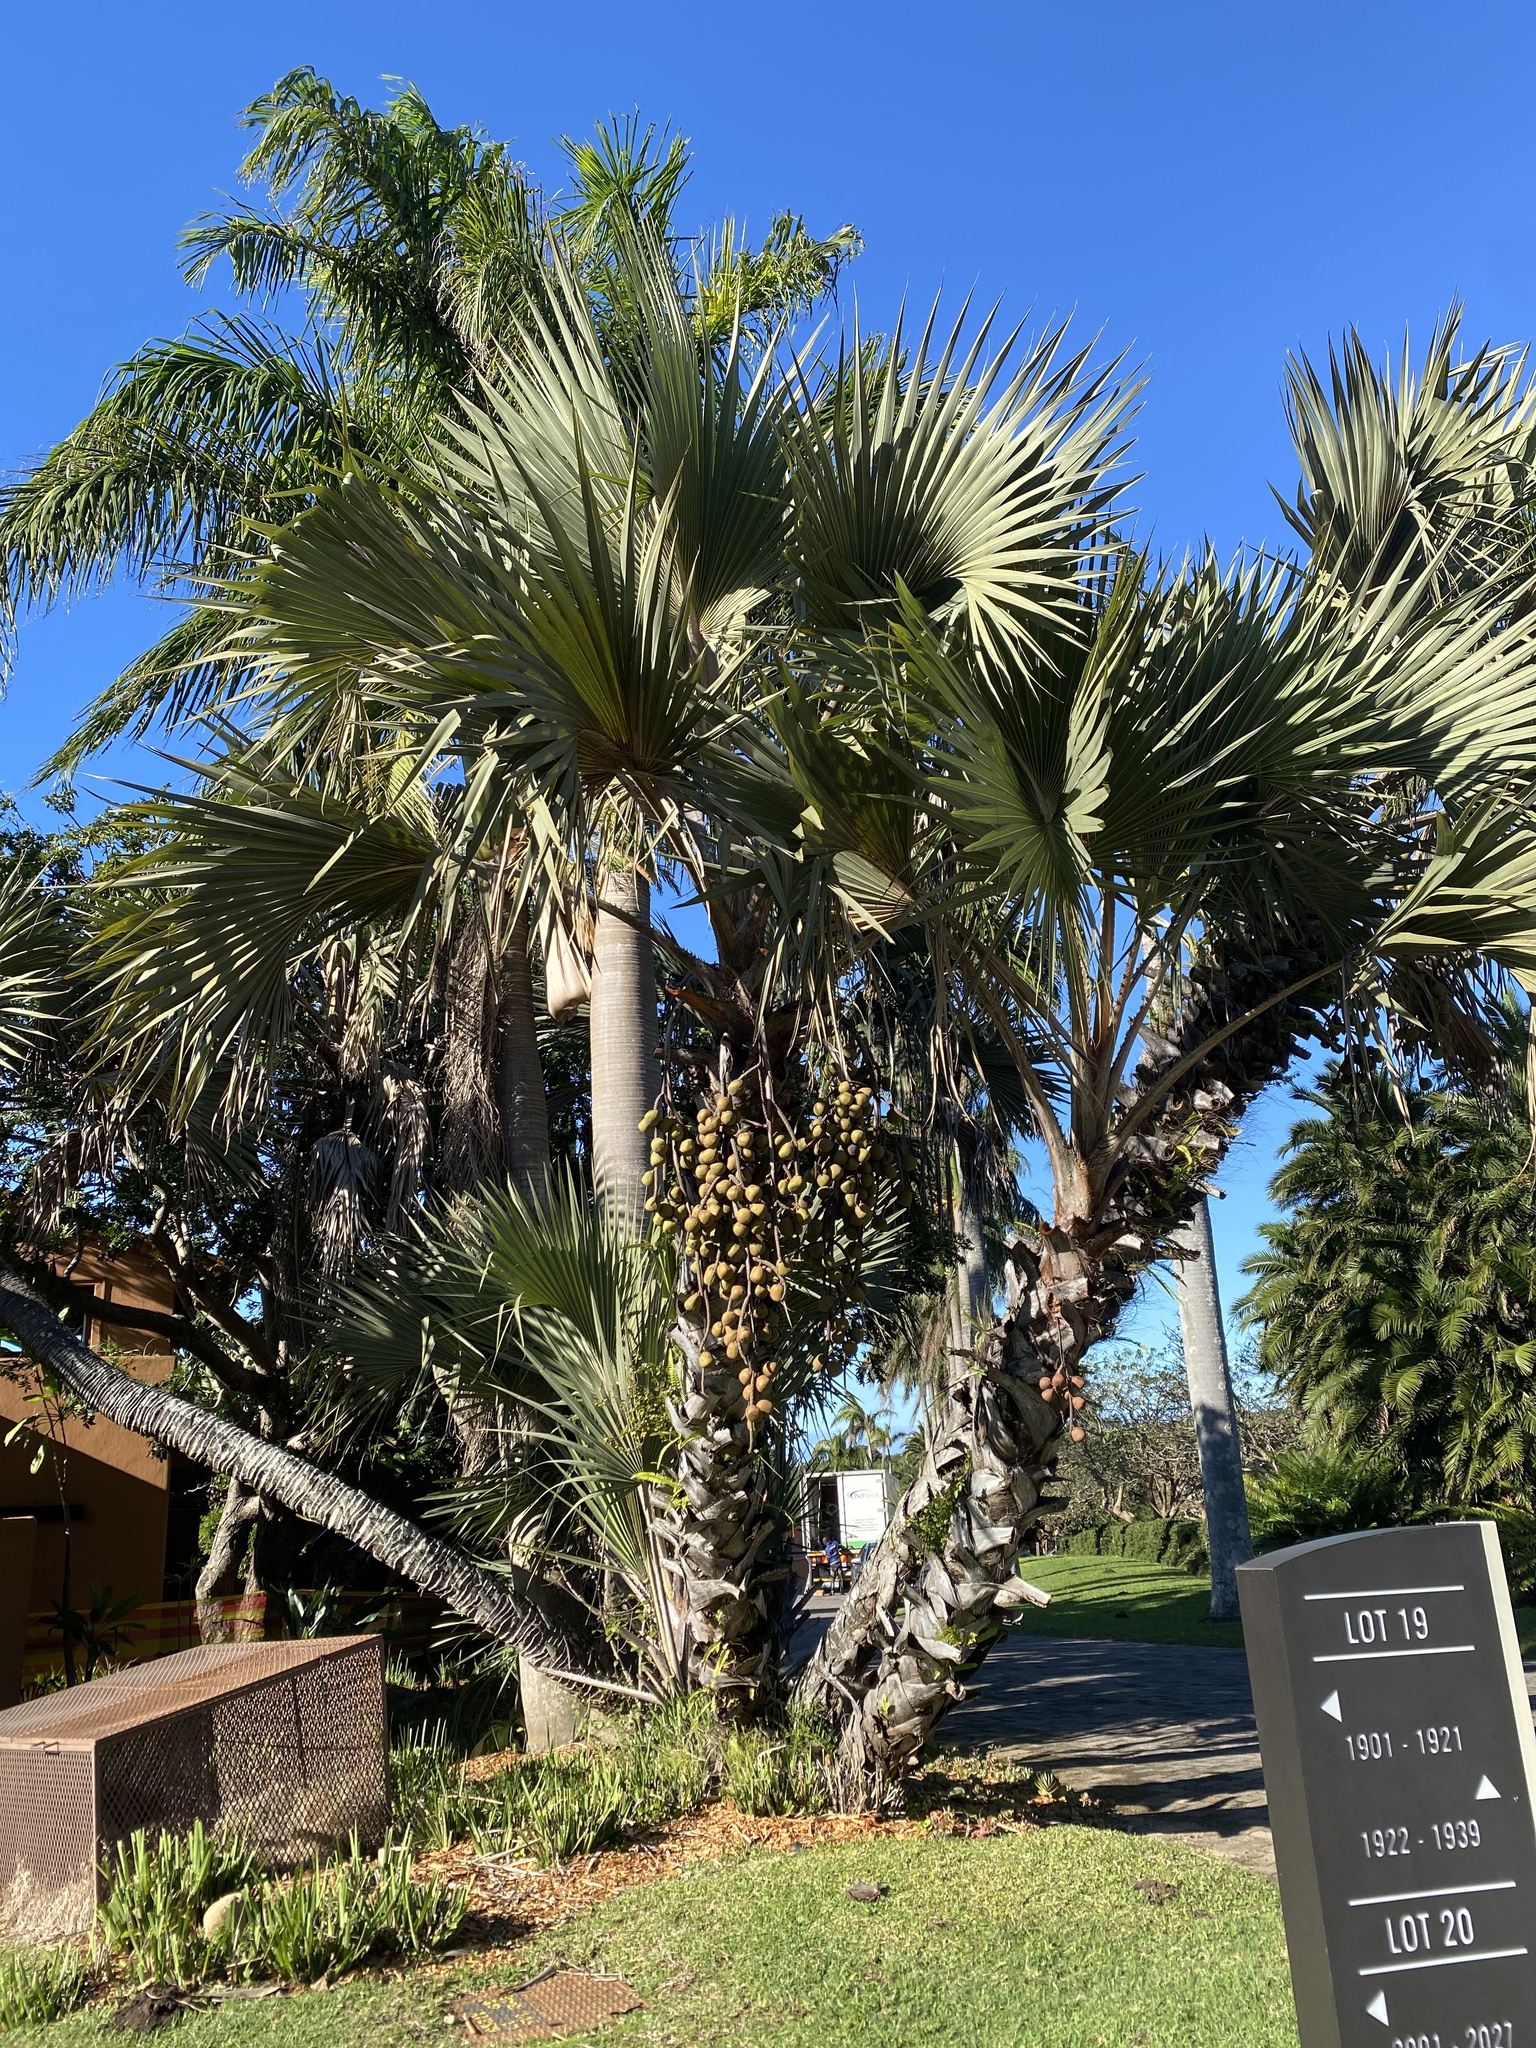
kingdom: Plantae
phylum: Tracheophyta
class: Liliopsida
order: Arecales
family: Arecaceae
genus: Hyphaene
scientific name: Hyphaene coriacea
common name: Ilala palm
